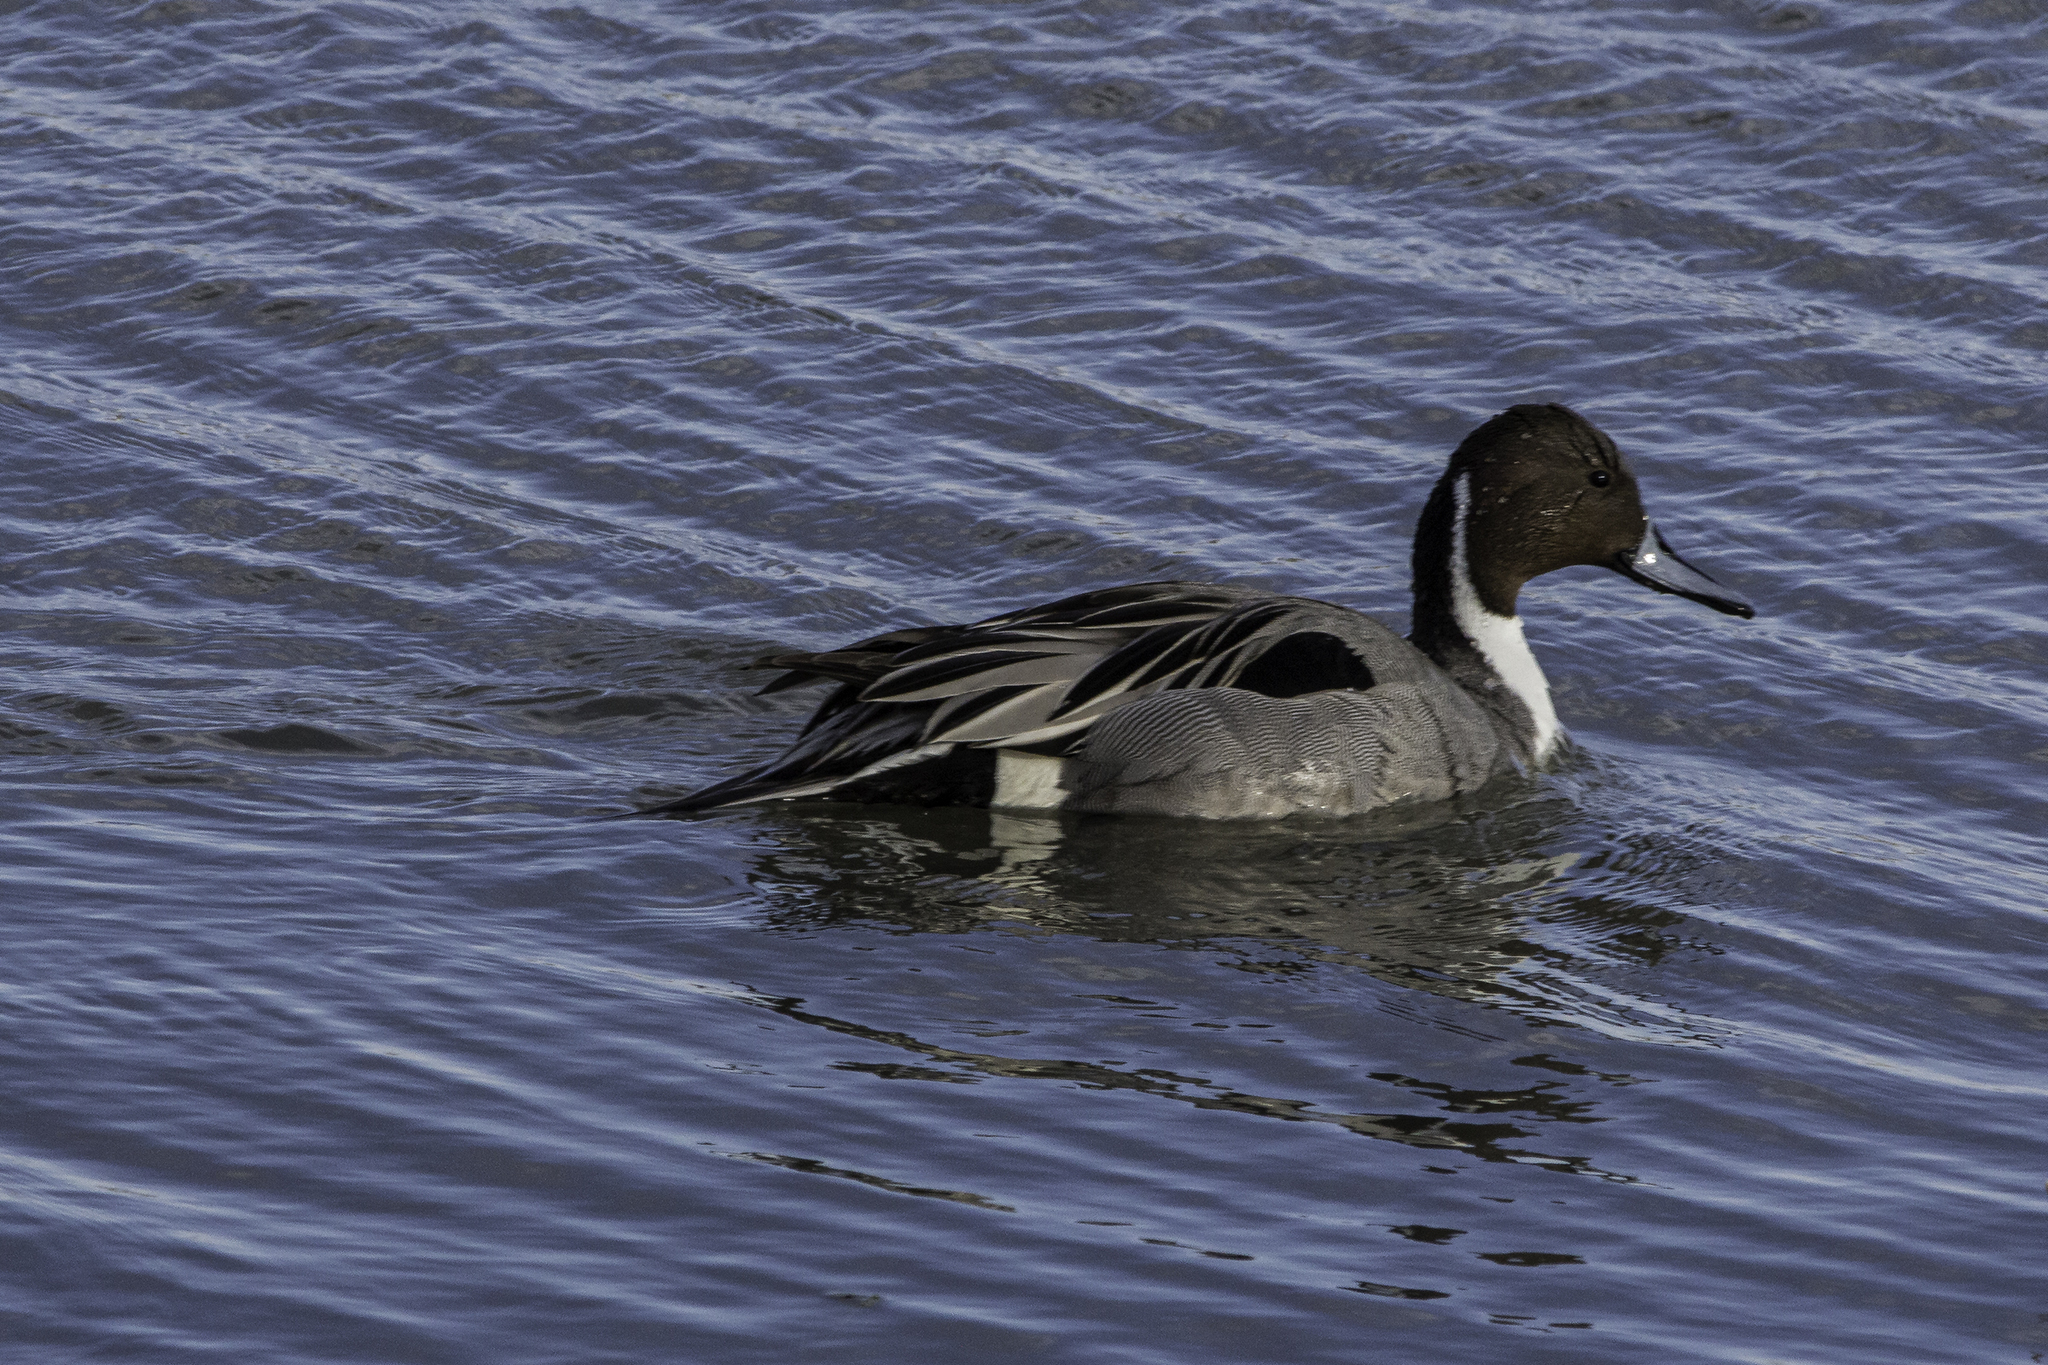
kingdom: Animalia
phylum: Chordata
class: Aves
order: Anseriformes
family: Anatidae
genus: Anas
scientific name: Anas acuta
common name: Northern pintail
